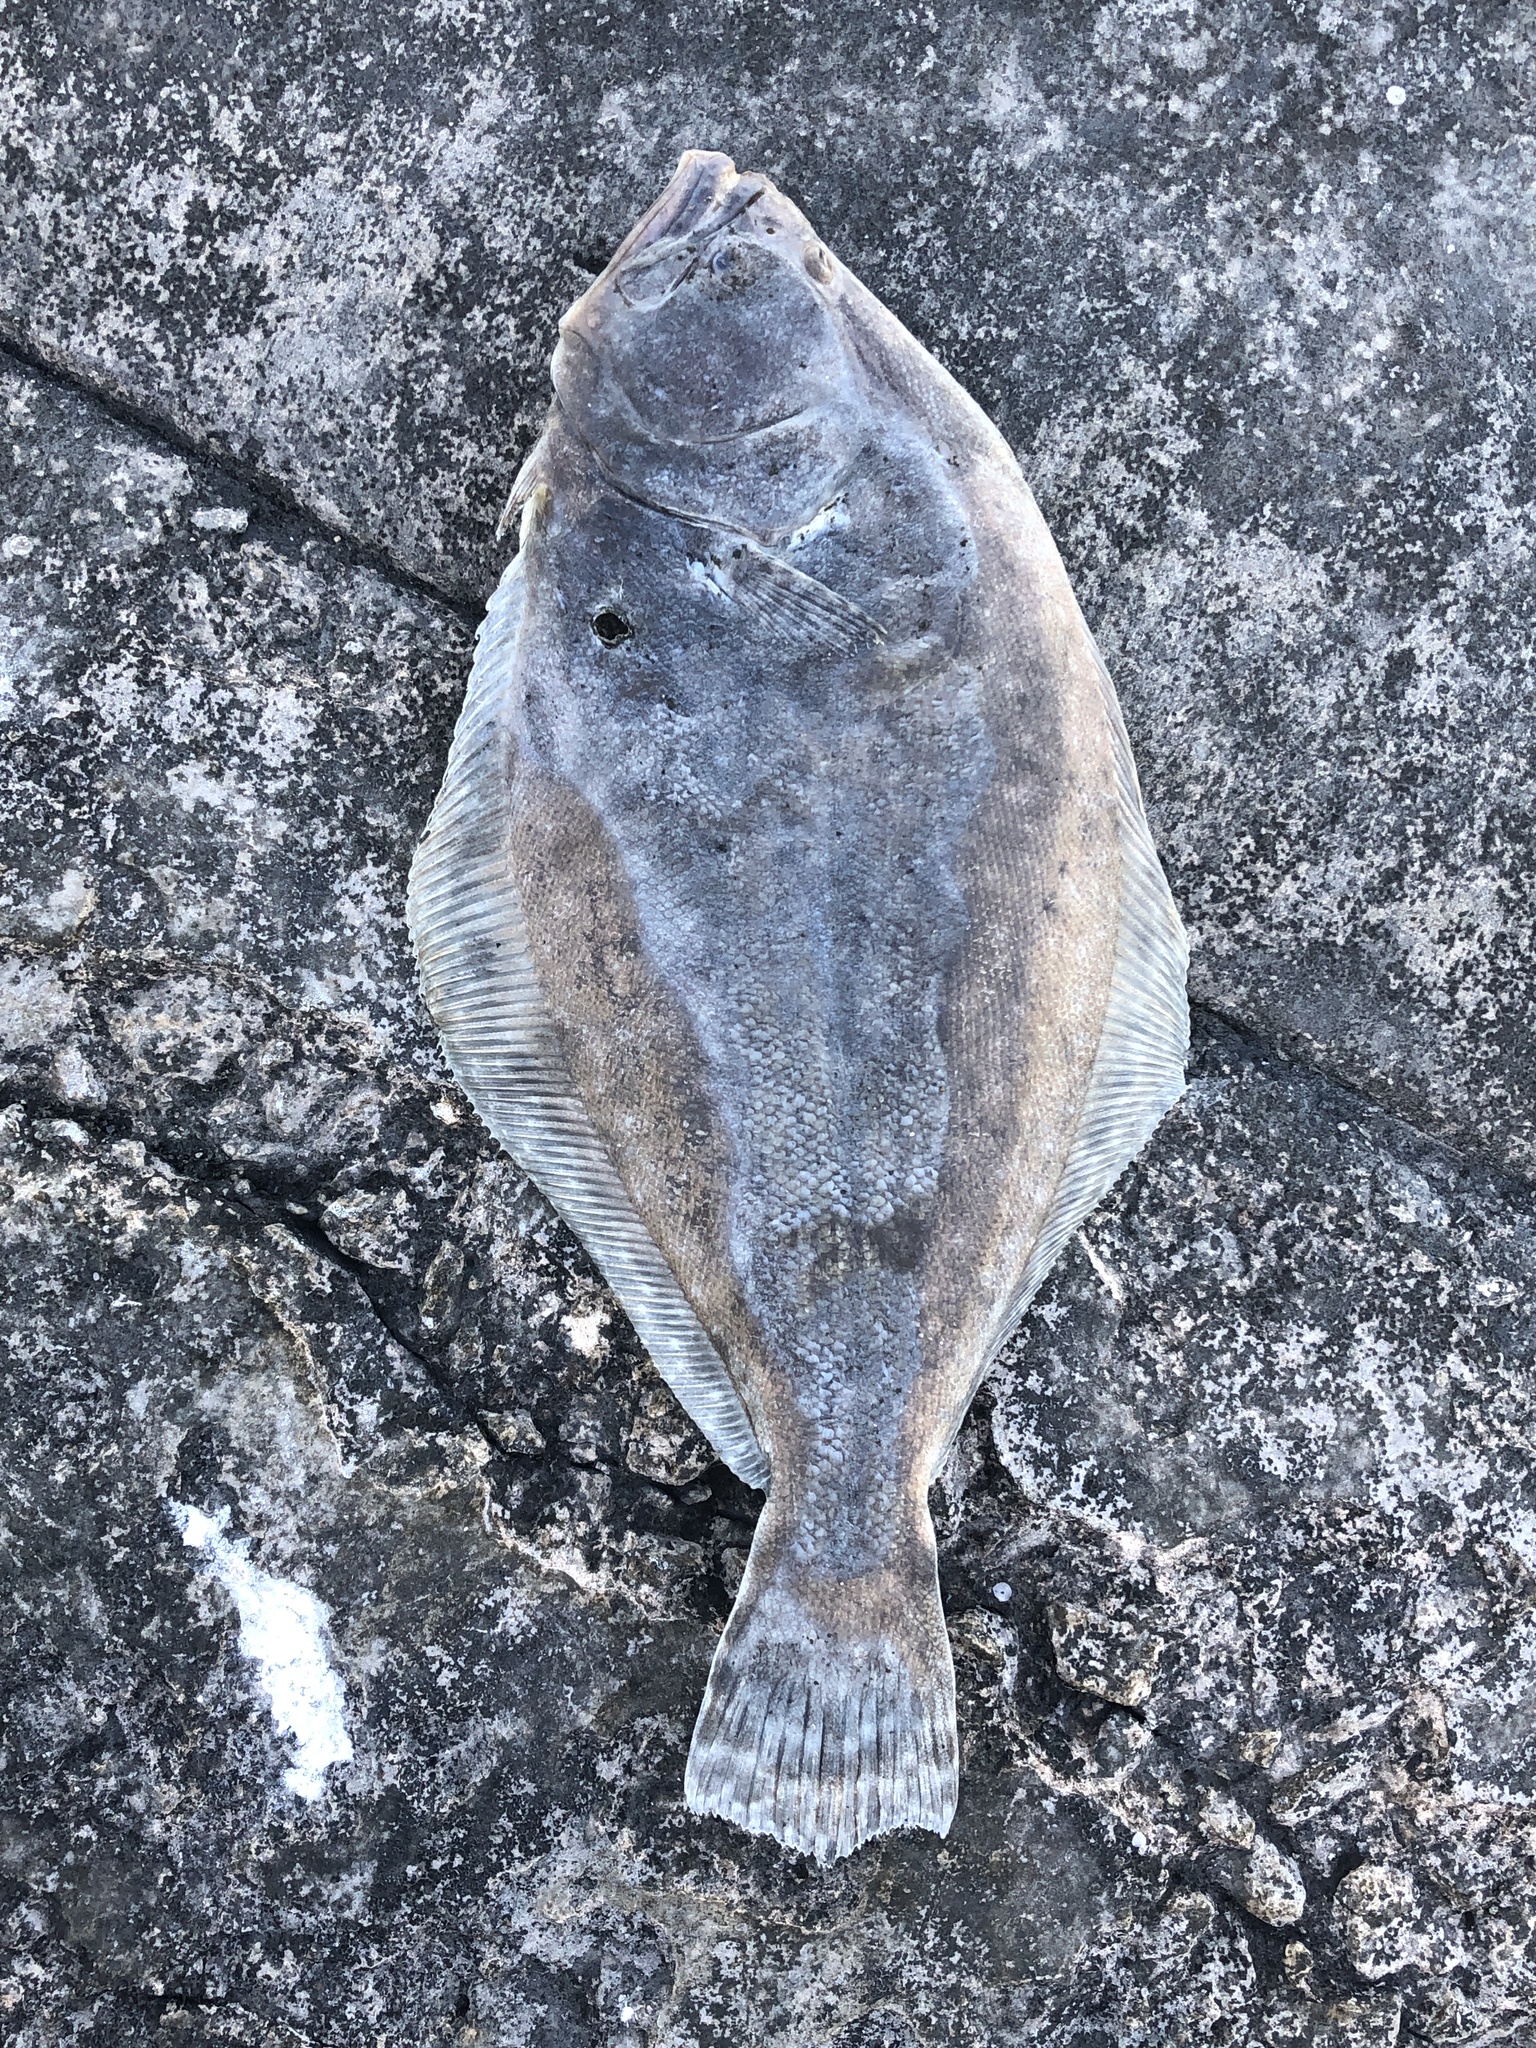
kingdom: Animalia
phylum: Chordata
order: Pleuronectiformes
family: Paralichthyidae
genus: Paralichthys
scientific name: Paralichthys lethostigma
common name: Southern flounder
